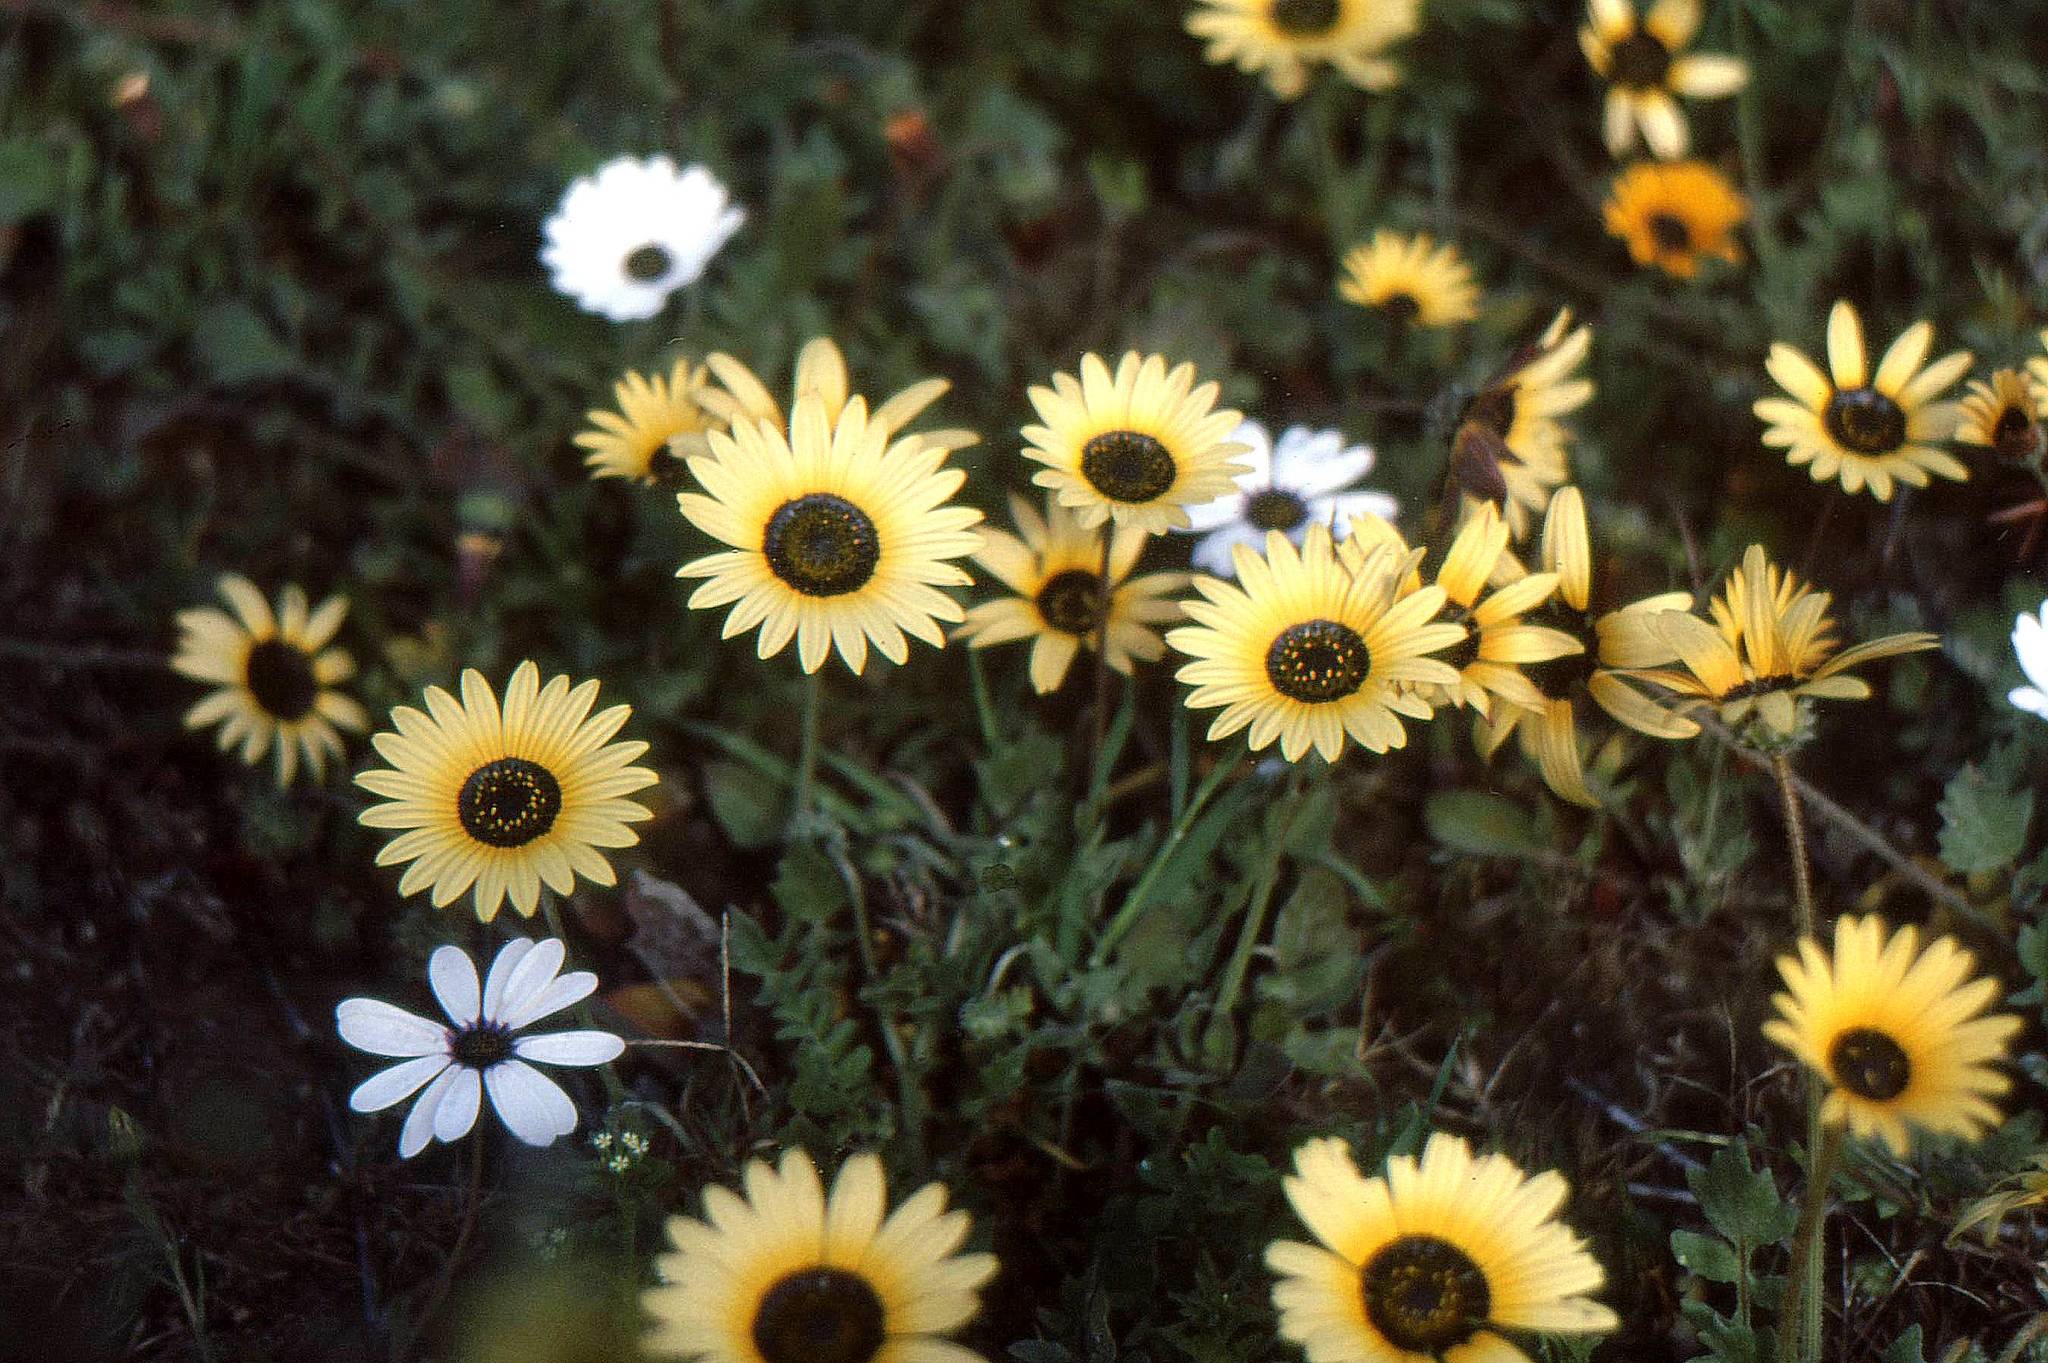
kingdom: Plantae
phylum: Tracheophyta
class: Magnoliopsida
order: Asterales
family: Asteraceae
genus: Arctotheca
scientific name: Arctotheca calendula
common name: Capeweed
